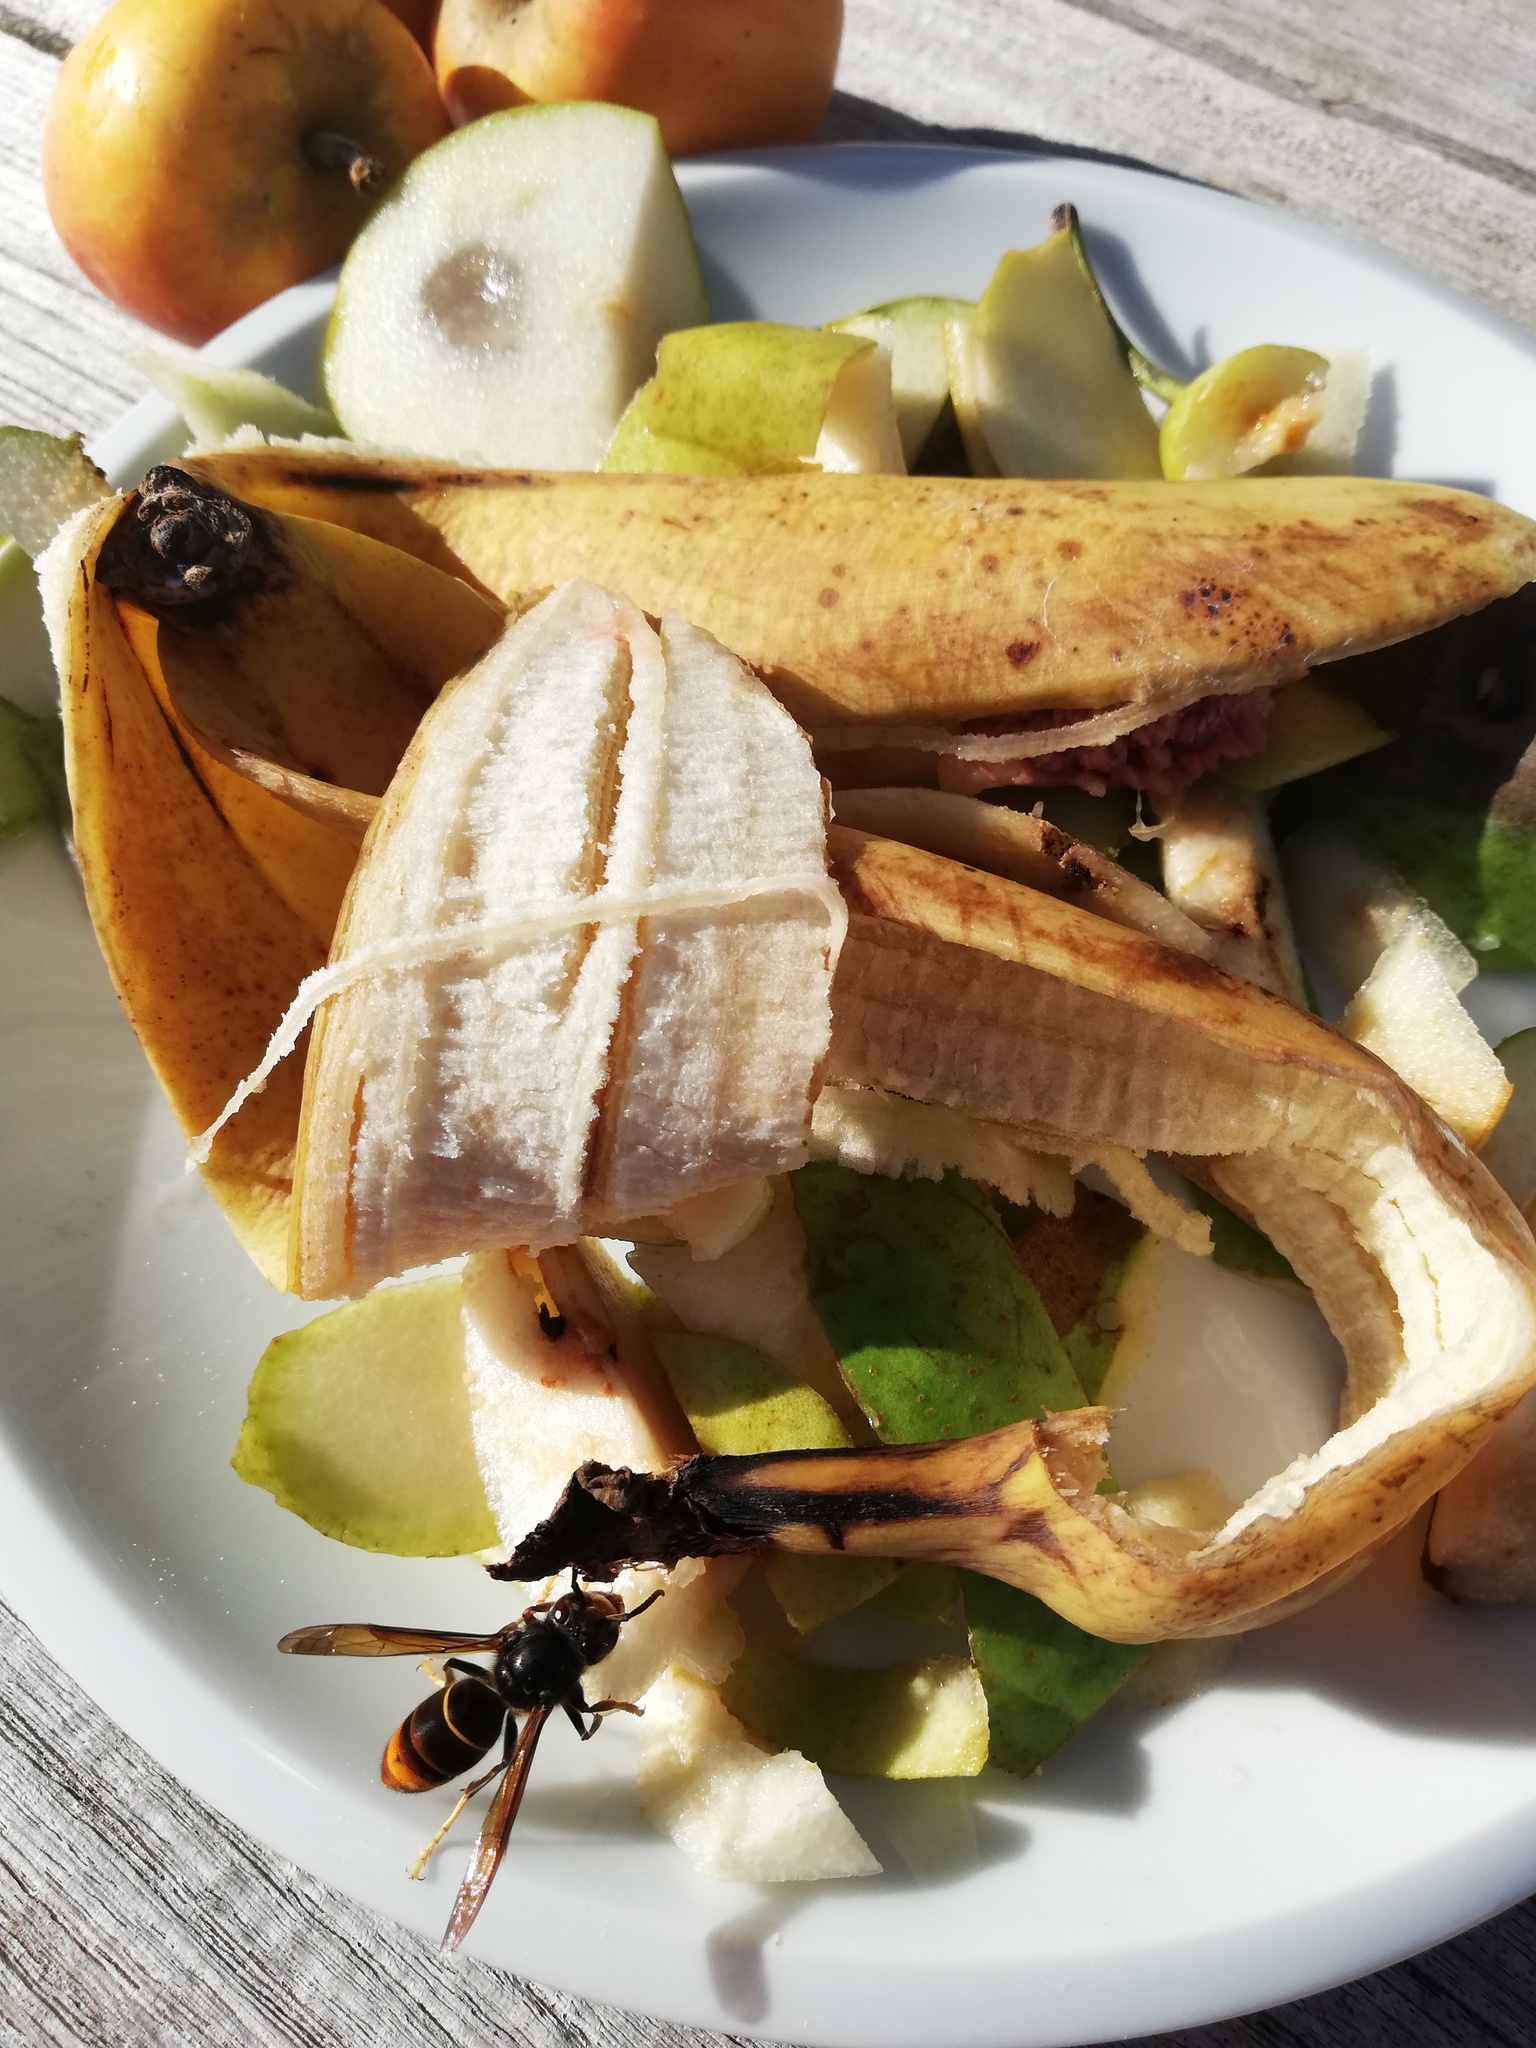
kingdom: Animalia
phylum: Arthropoda
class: Insecta
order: Hymenoptera
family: Vespidae
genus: Vespa
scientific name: Vespa velutina
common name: Asian hornet
